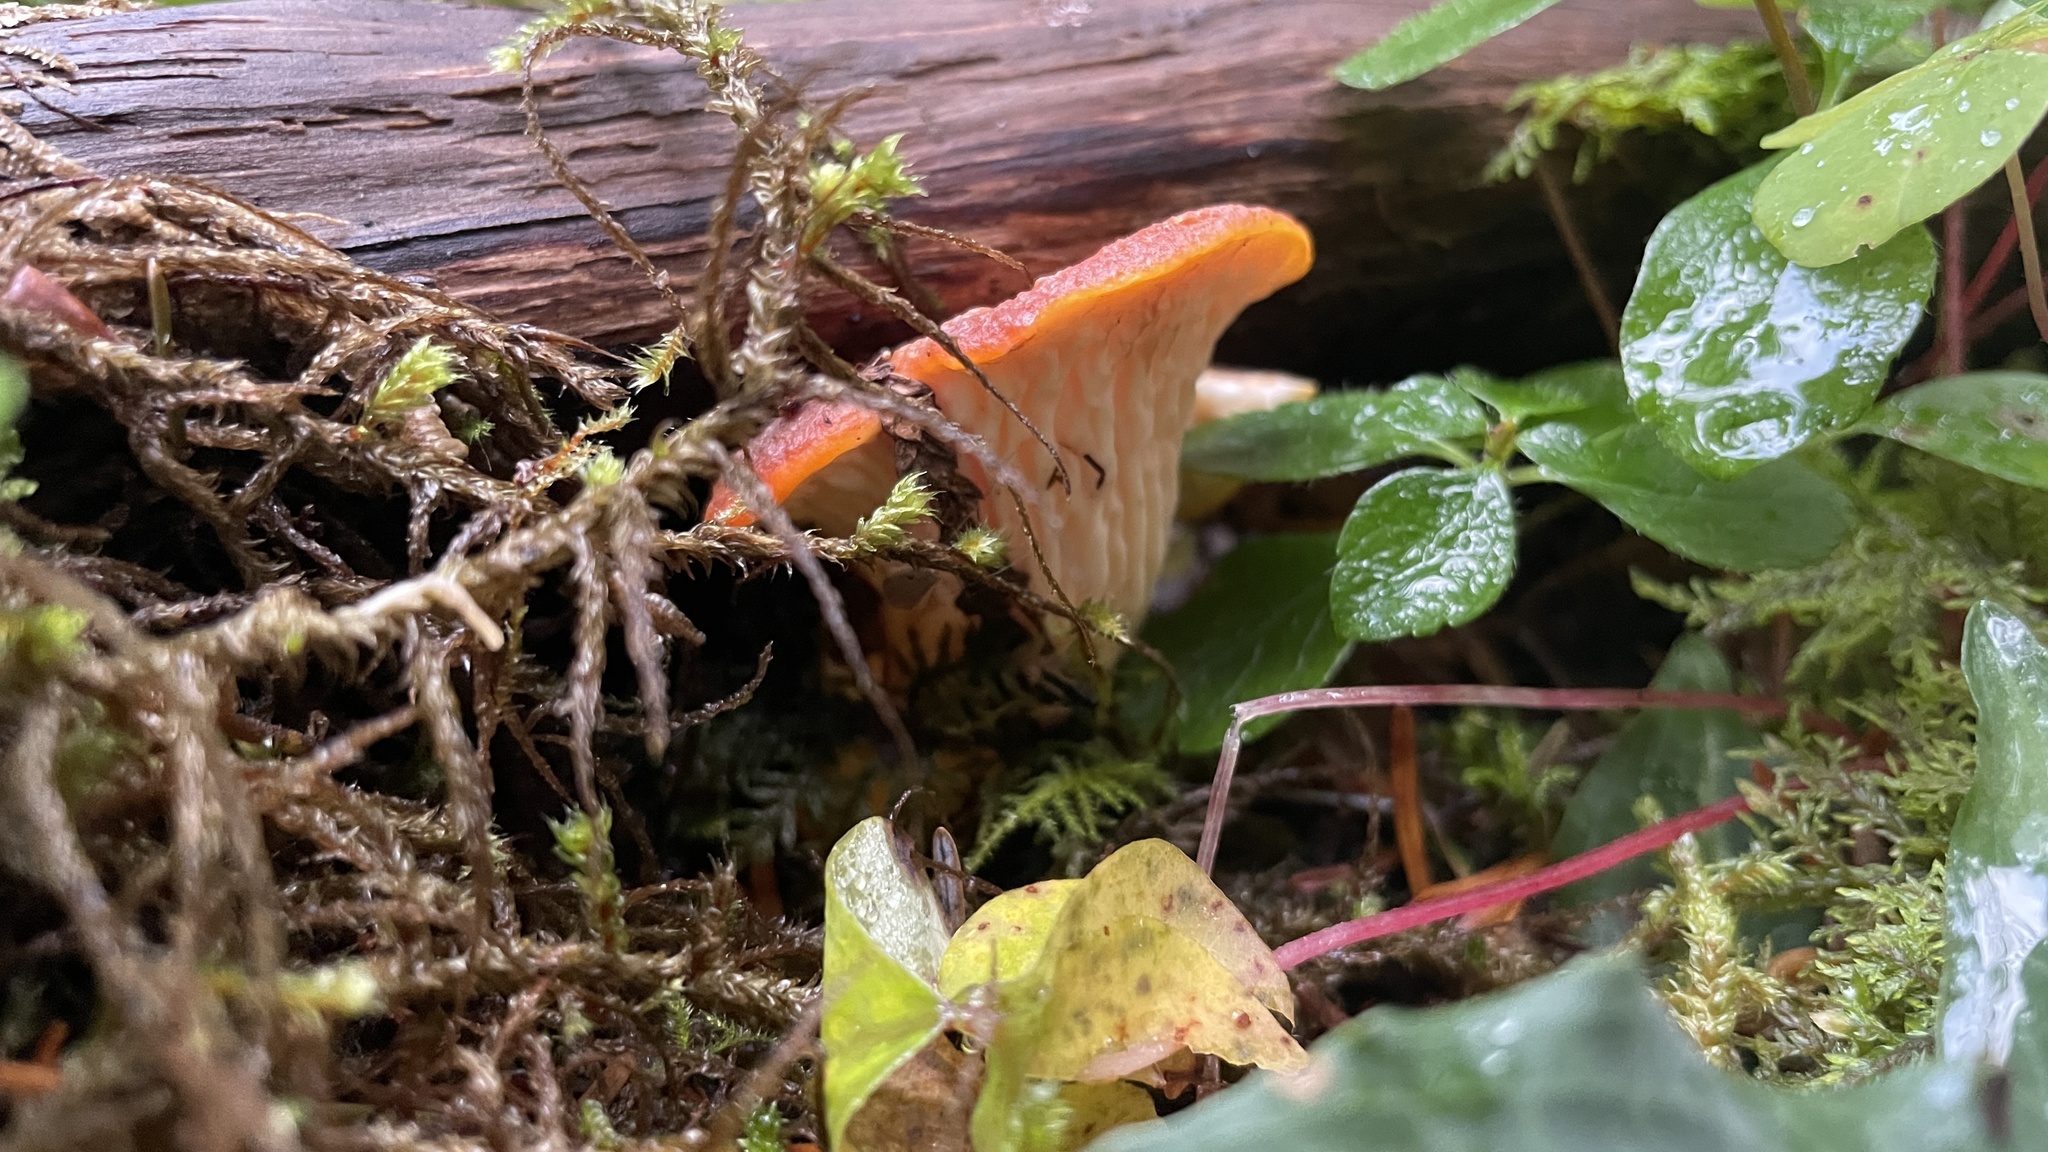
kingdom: Fungi
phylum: Basidiomycota
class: Agaricomycetes
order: Gomphales
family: Gomphaceae
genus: Turbinellus
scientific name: Turbinellus floccosus
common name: Scaly chanterelle
